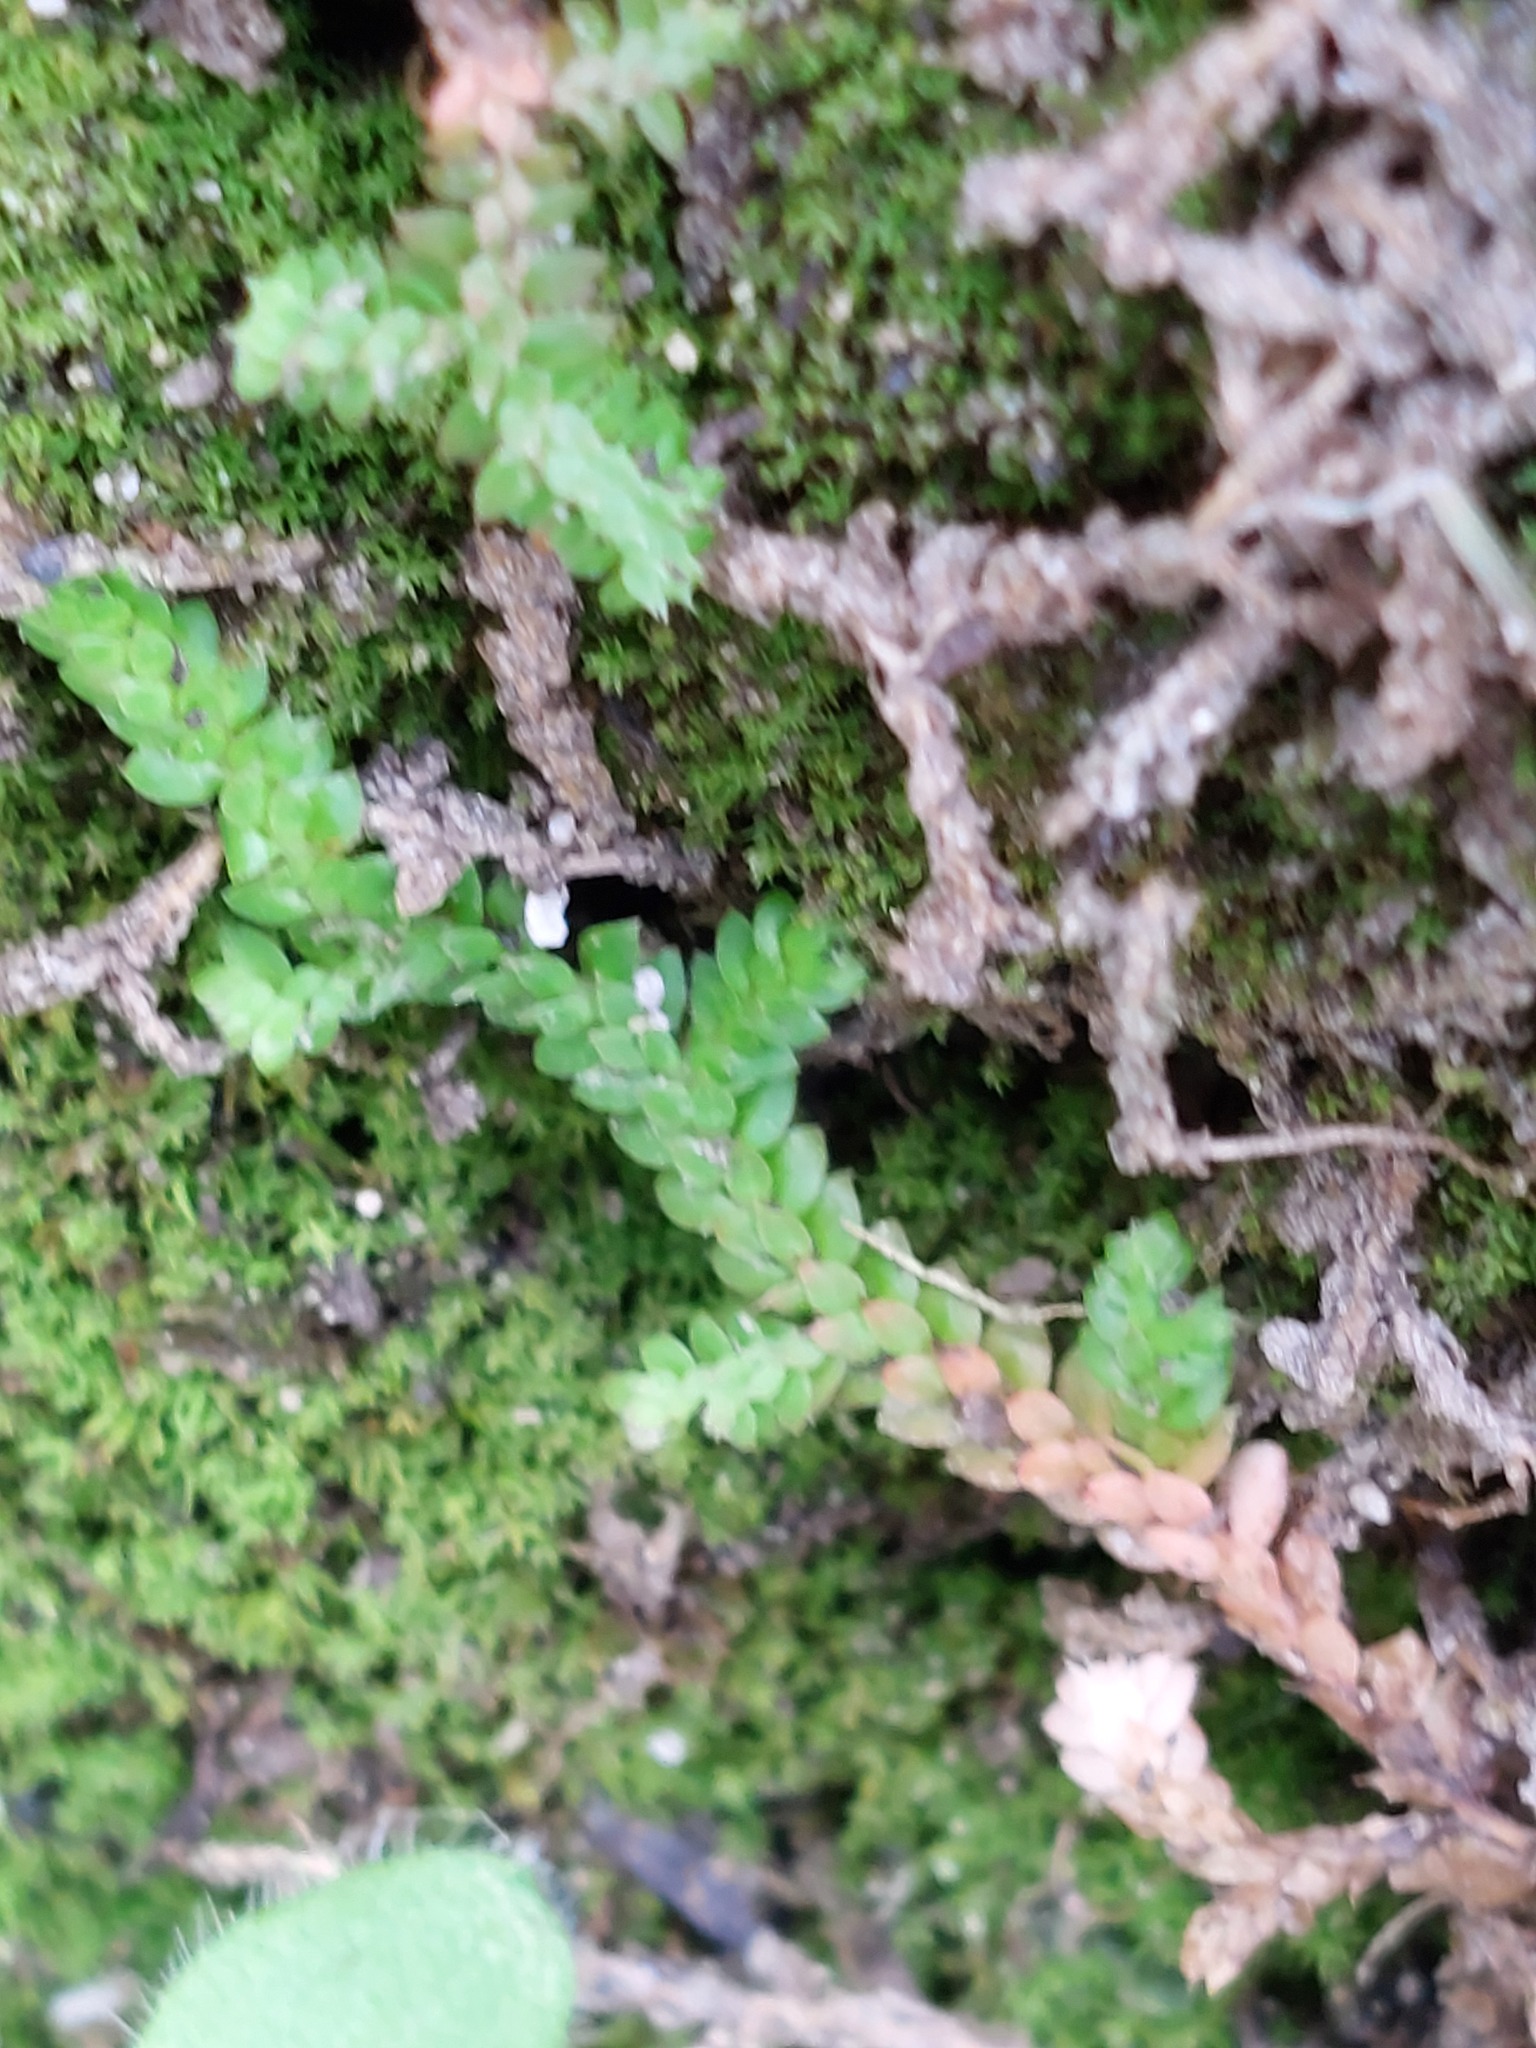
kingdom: Plantae
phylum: Tracheophyta
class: Lycopodiopsida
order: Selaginellales
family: Selaginellaceae
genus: Selaginella
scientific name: Selaginella denticulata
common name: Toothed-leaved clubmoss
